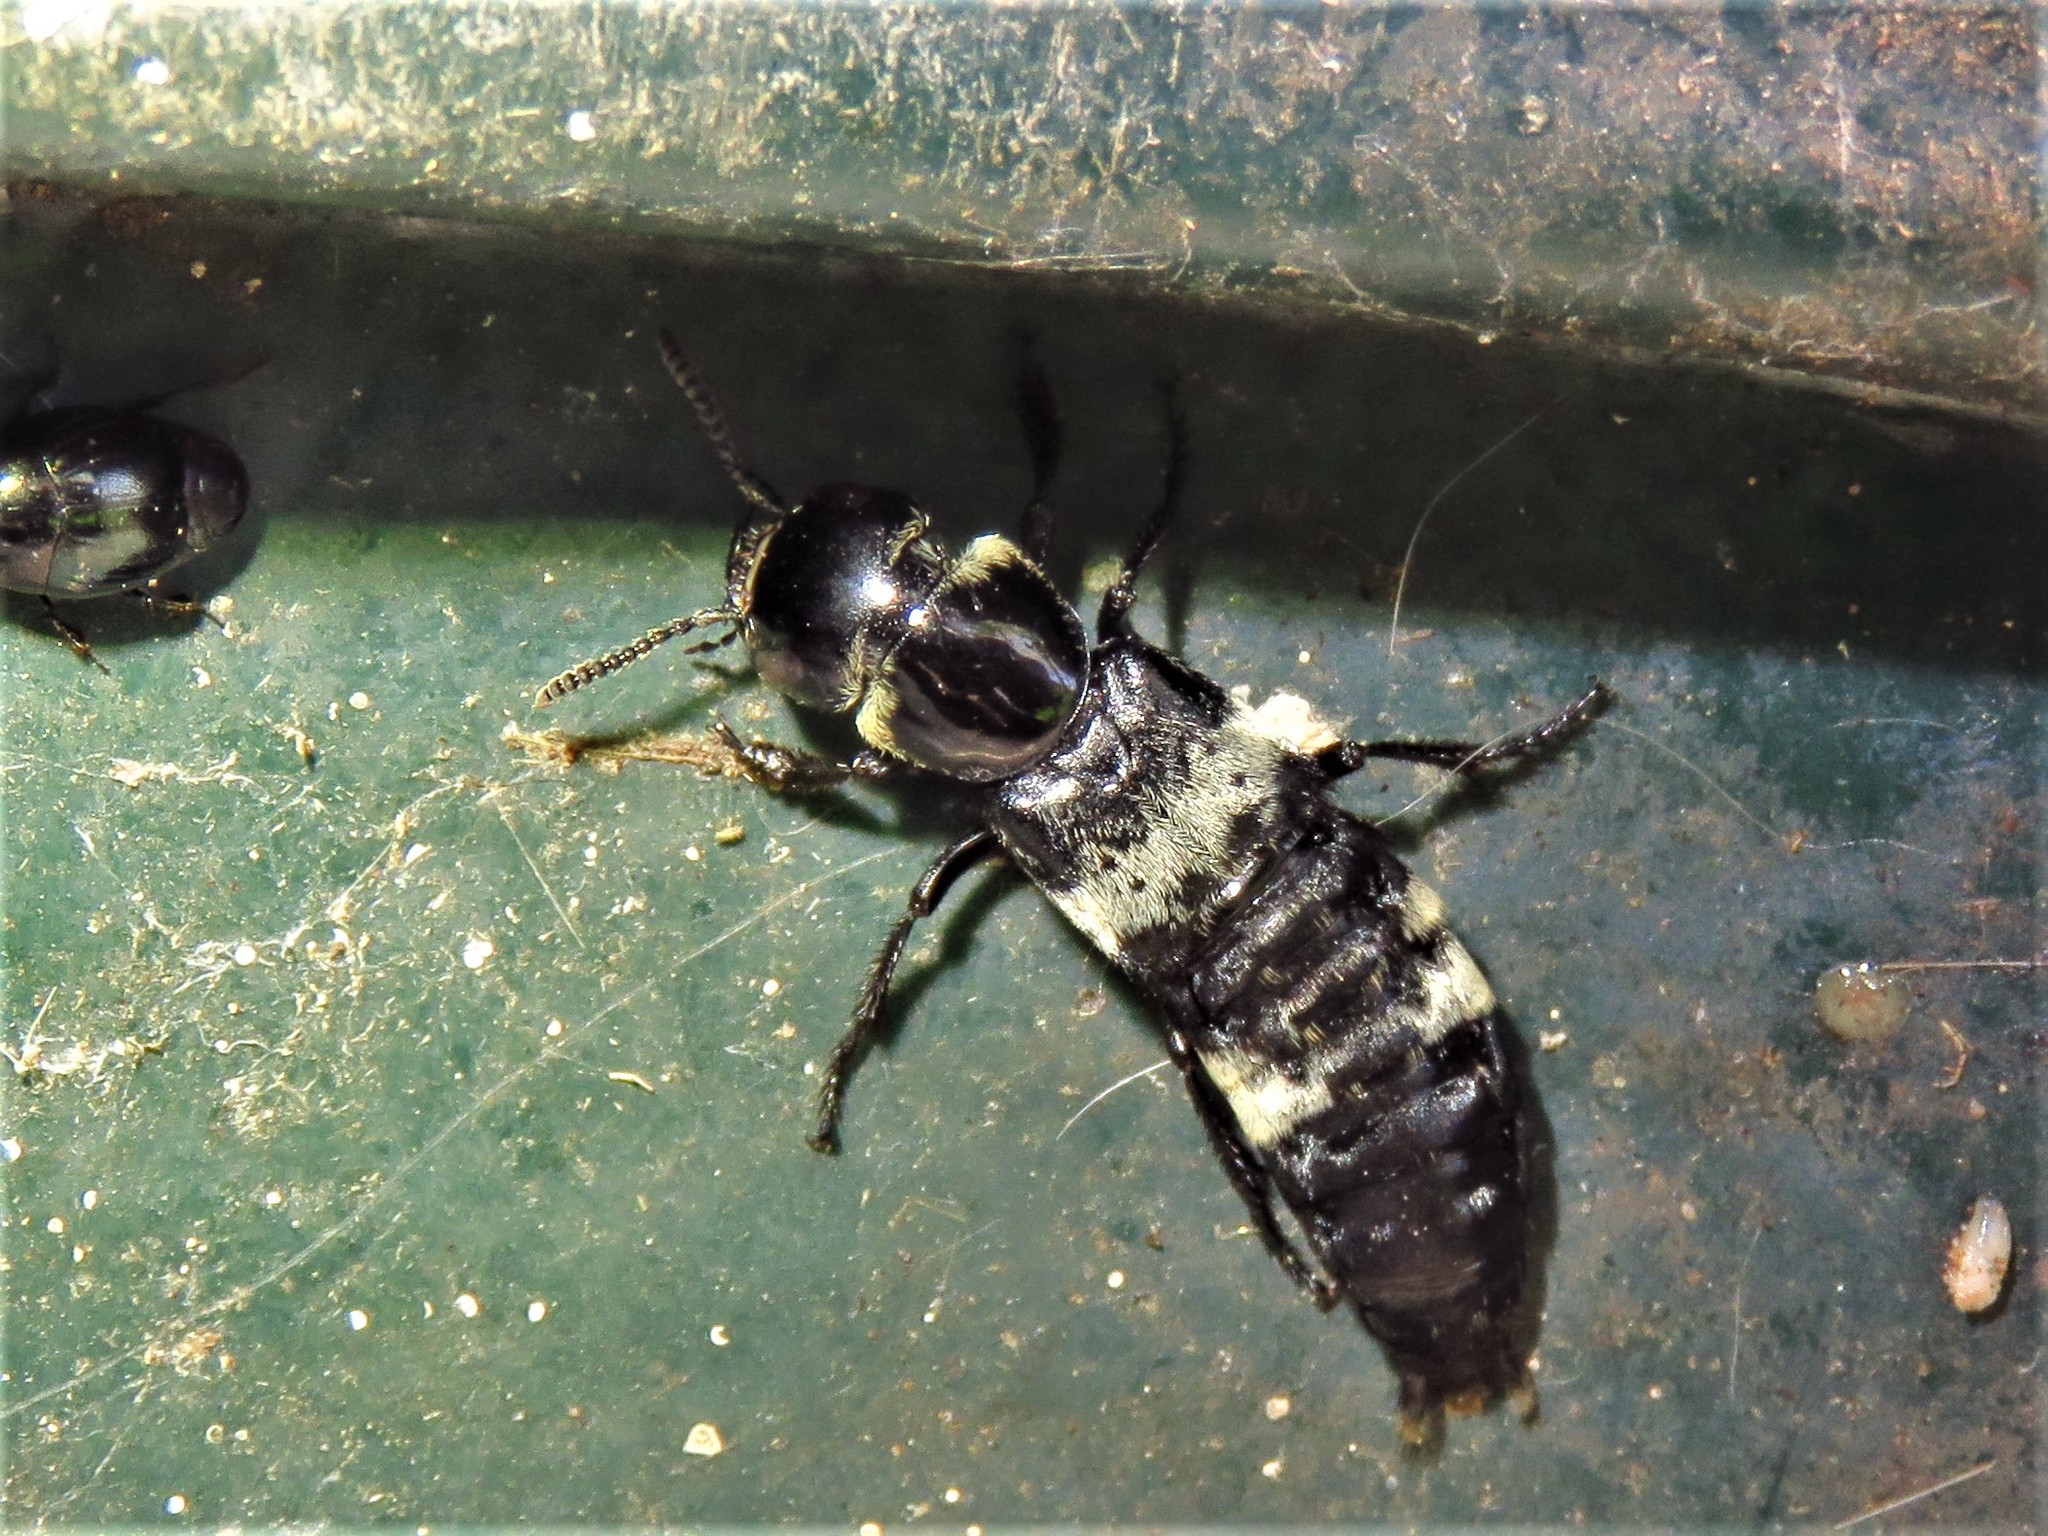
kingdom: Animalia
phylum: Arthropoda
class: Insecta
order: Coleoptera
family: Staphylinidae
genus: Creophilus
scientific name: Creophilus maxillosus
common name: Hairy rove beetle
